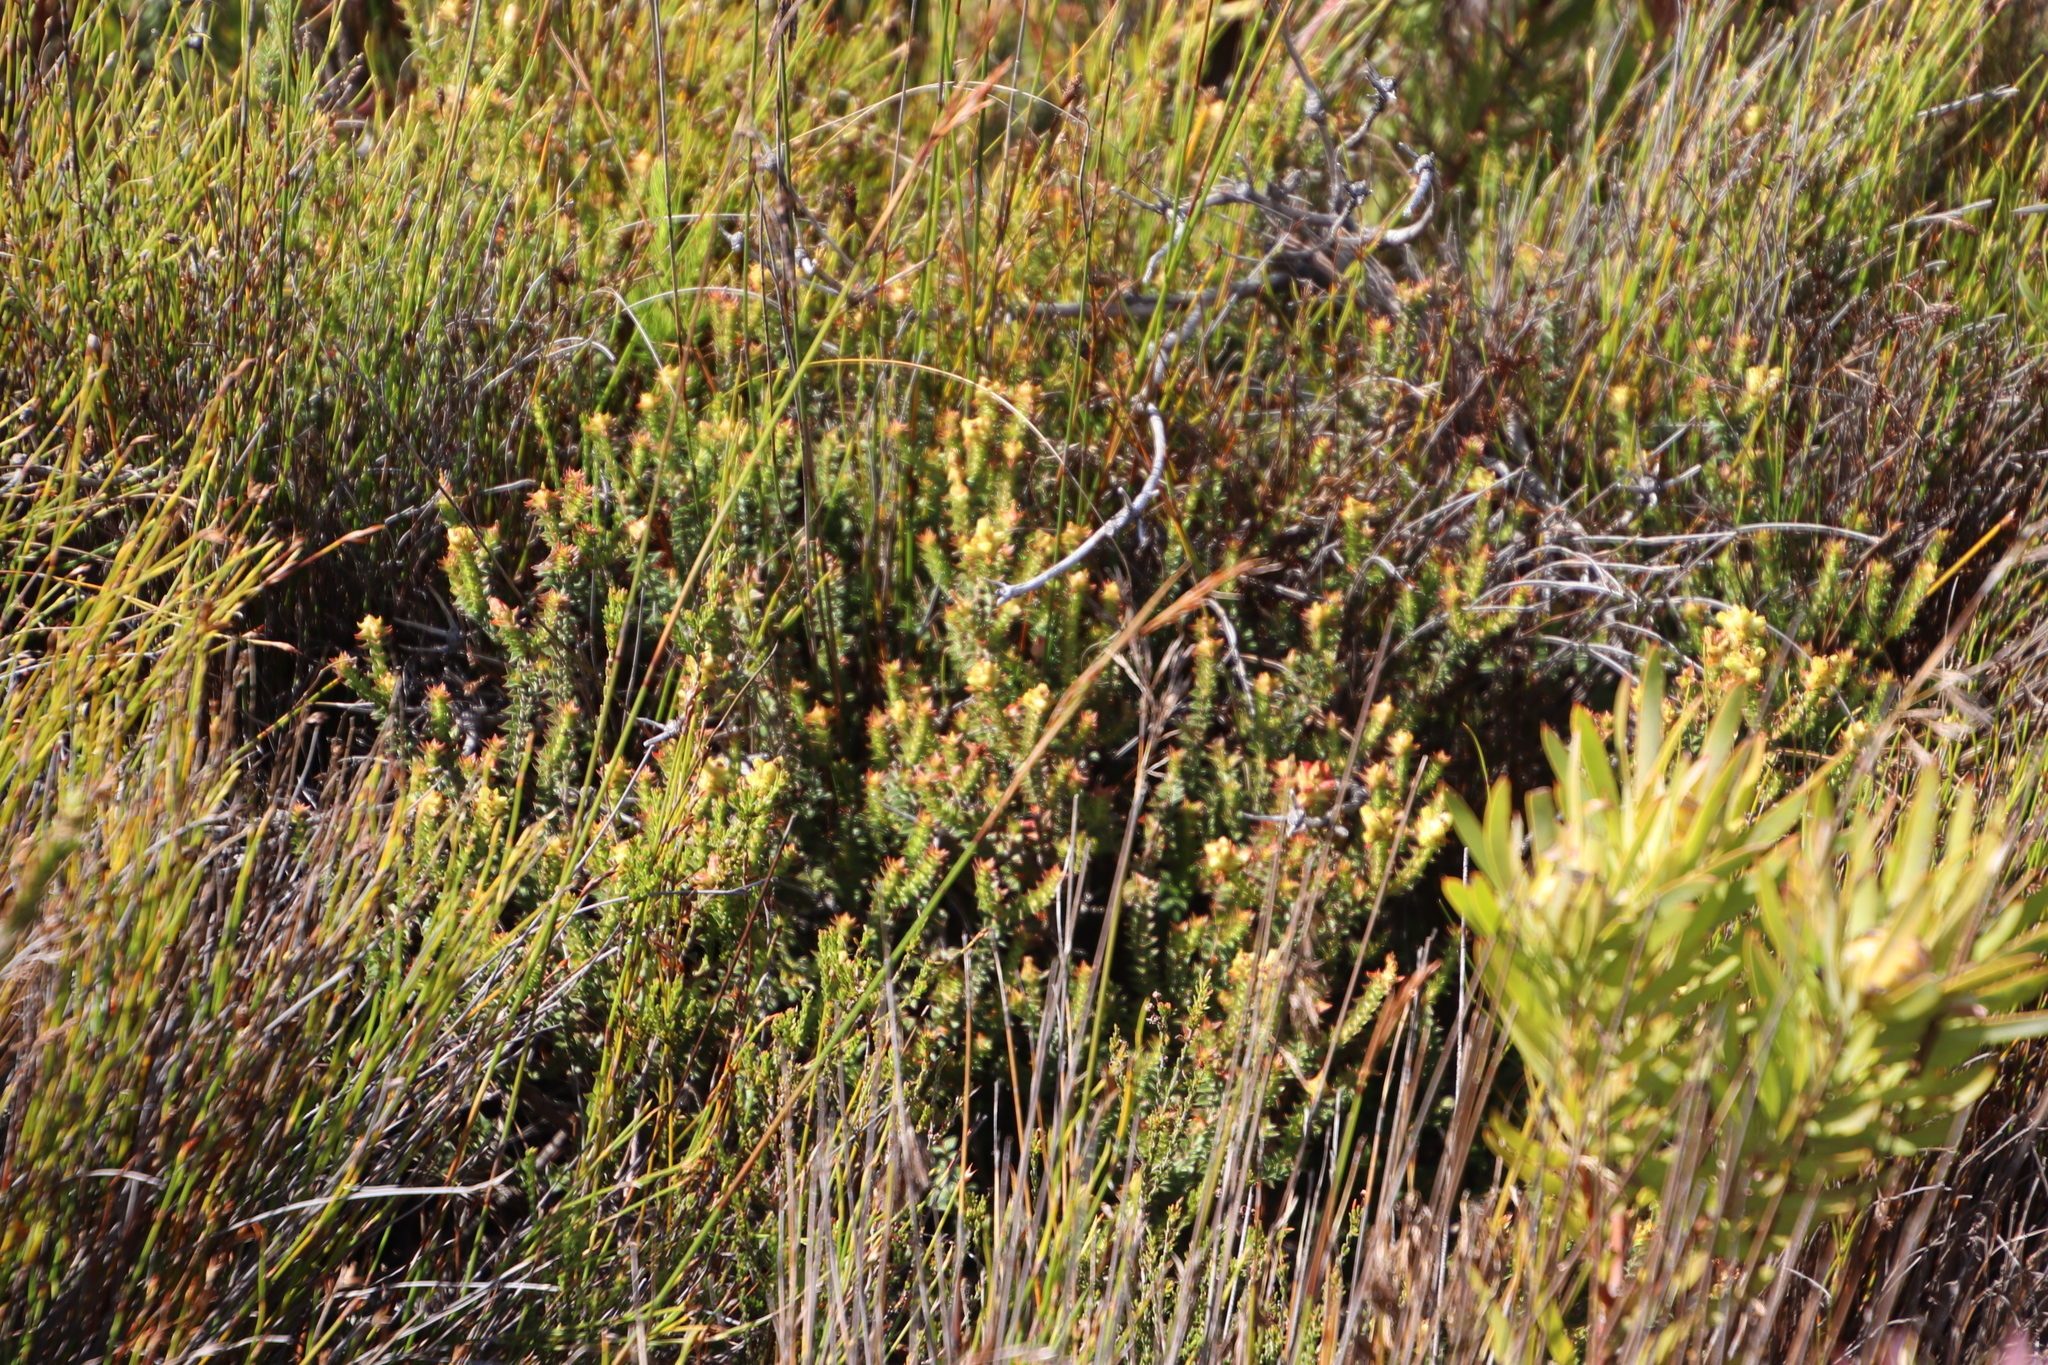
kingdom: Plantae
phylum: Tracheophyta
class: Magnoliopsida
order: Myrtales
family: Penaeaceae
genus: Penaea
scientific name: Penaea mucronata
